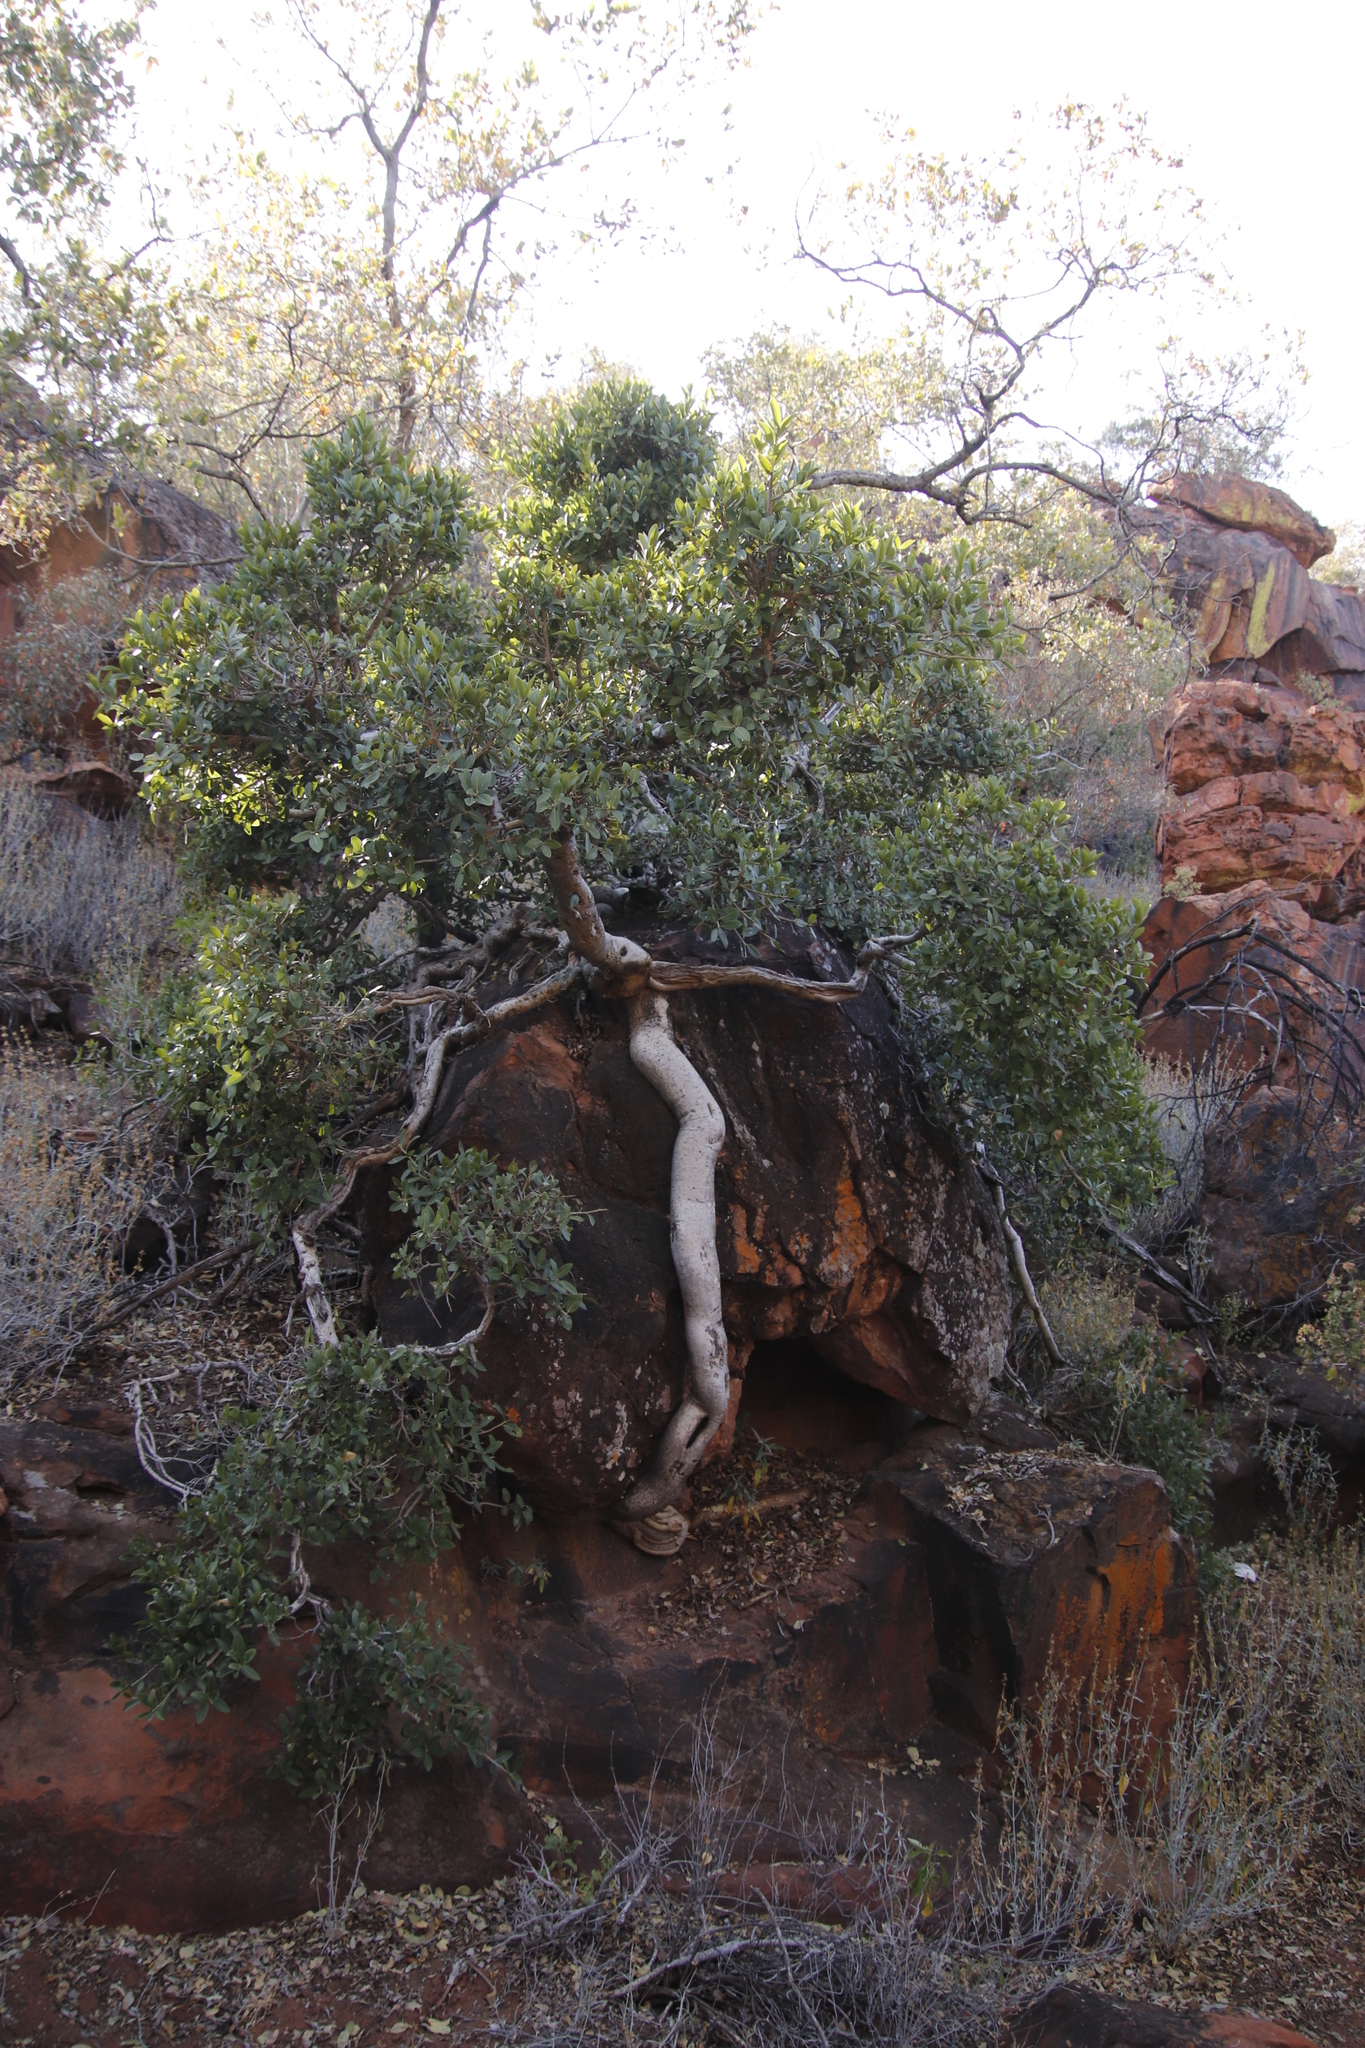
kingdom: Plantae
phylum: Tracheophyta
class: Magnoliopsida
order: Rosales
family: Moraceae
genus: Ficus
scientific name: Ficus ilicina
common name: Laurel rock fig
